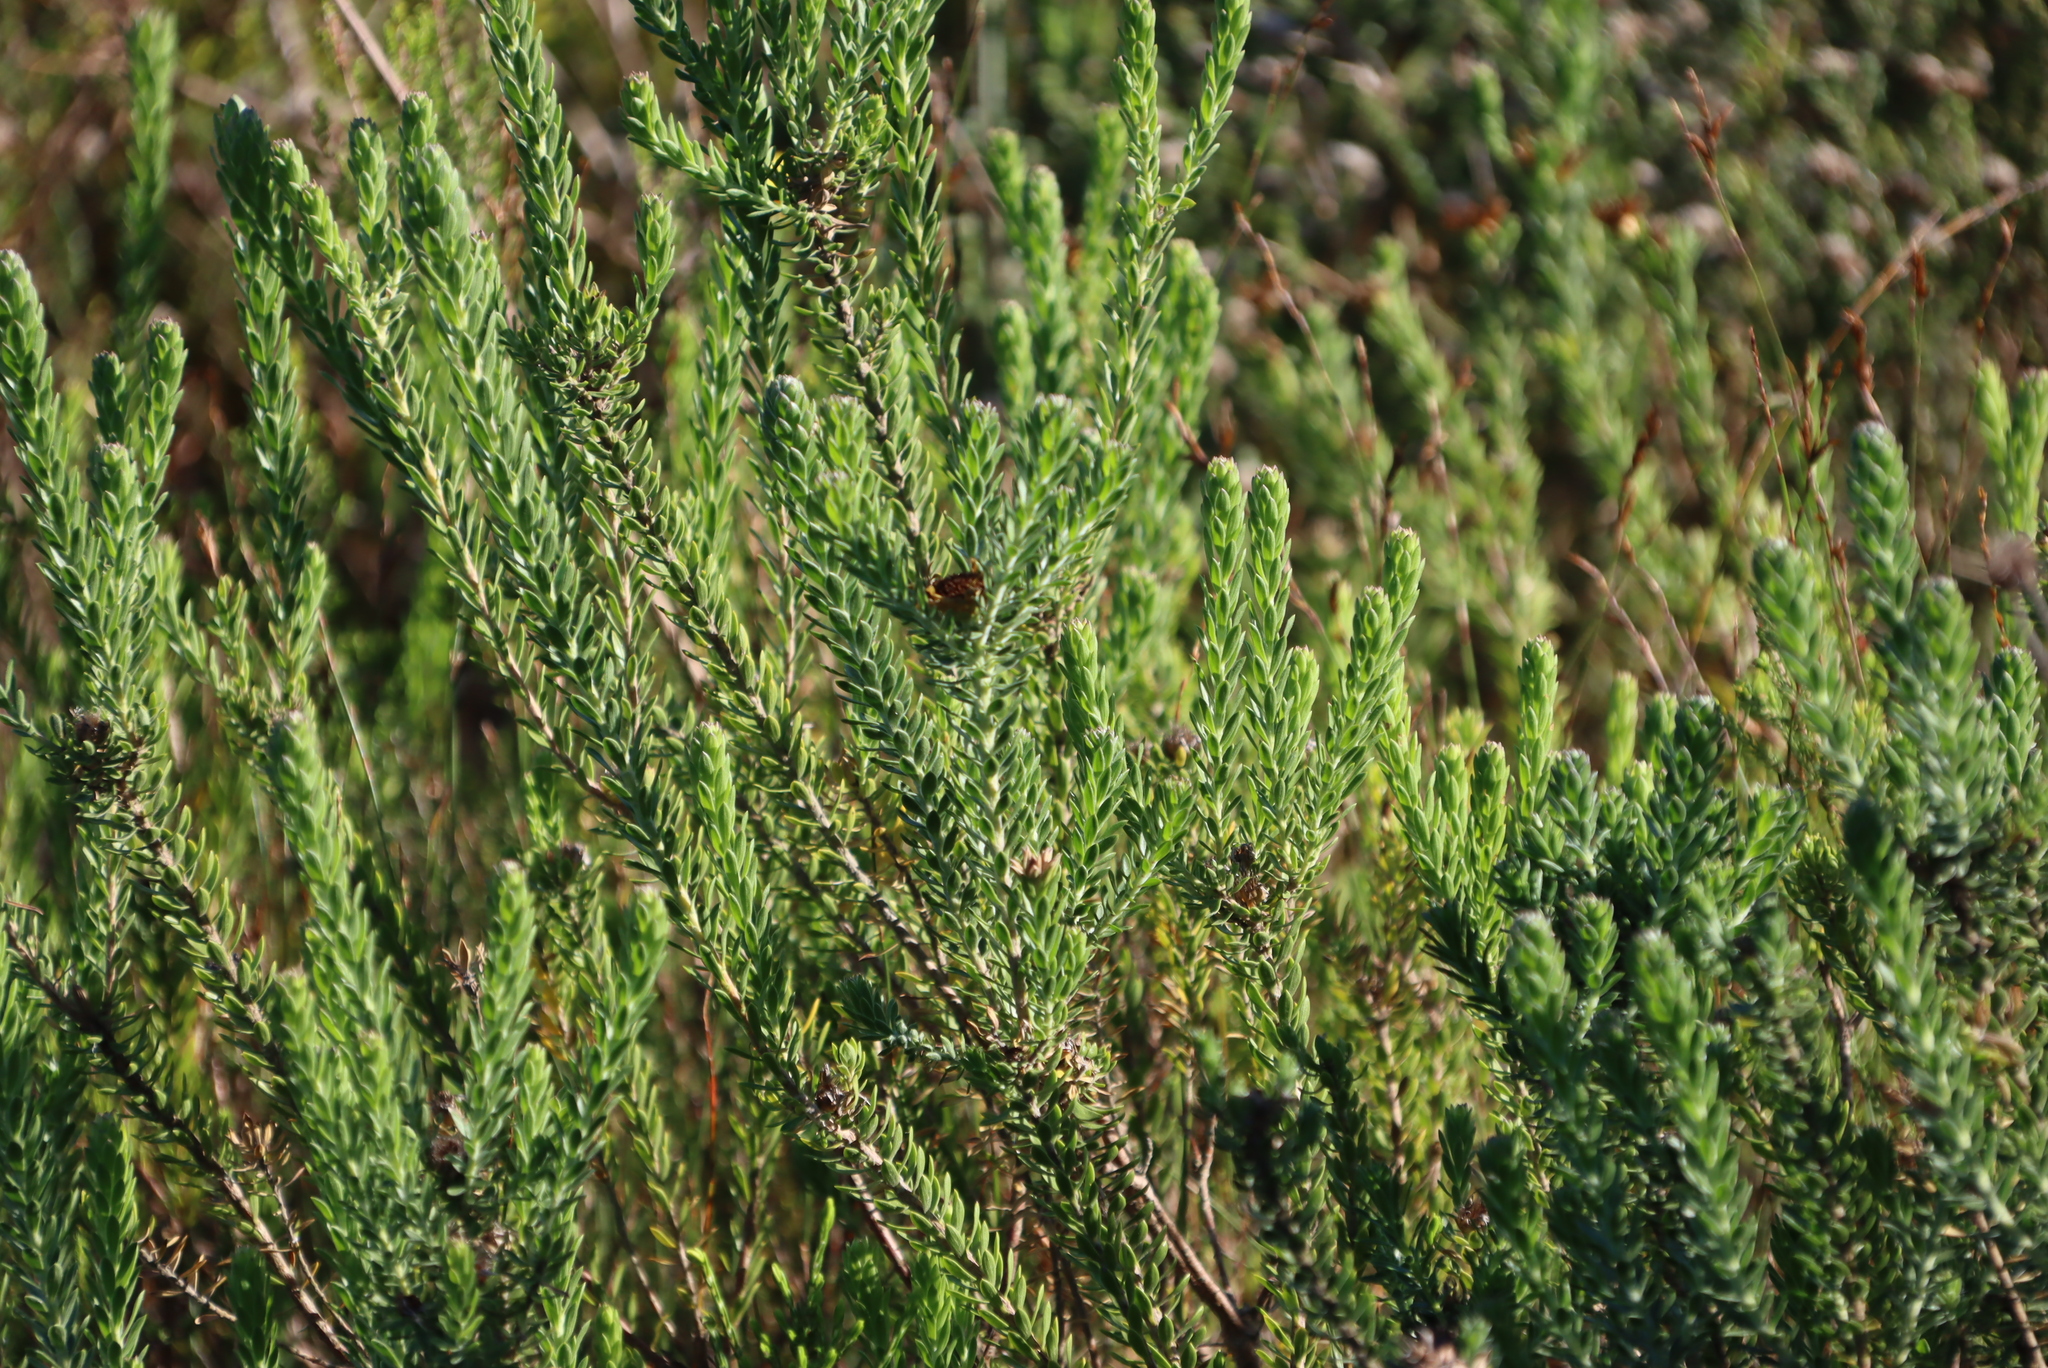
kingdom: Plantae
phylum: Tracheophyta
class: Magnoliopsida
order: Asterales
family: Asteraceae
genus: Oedera
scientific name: Oedera calycina
